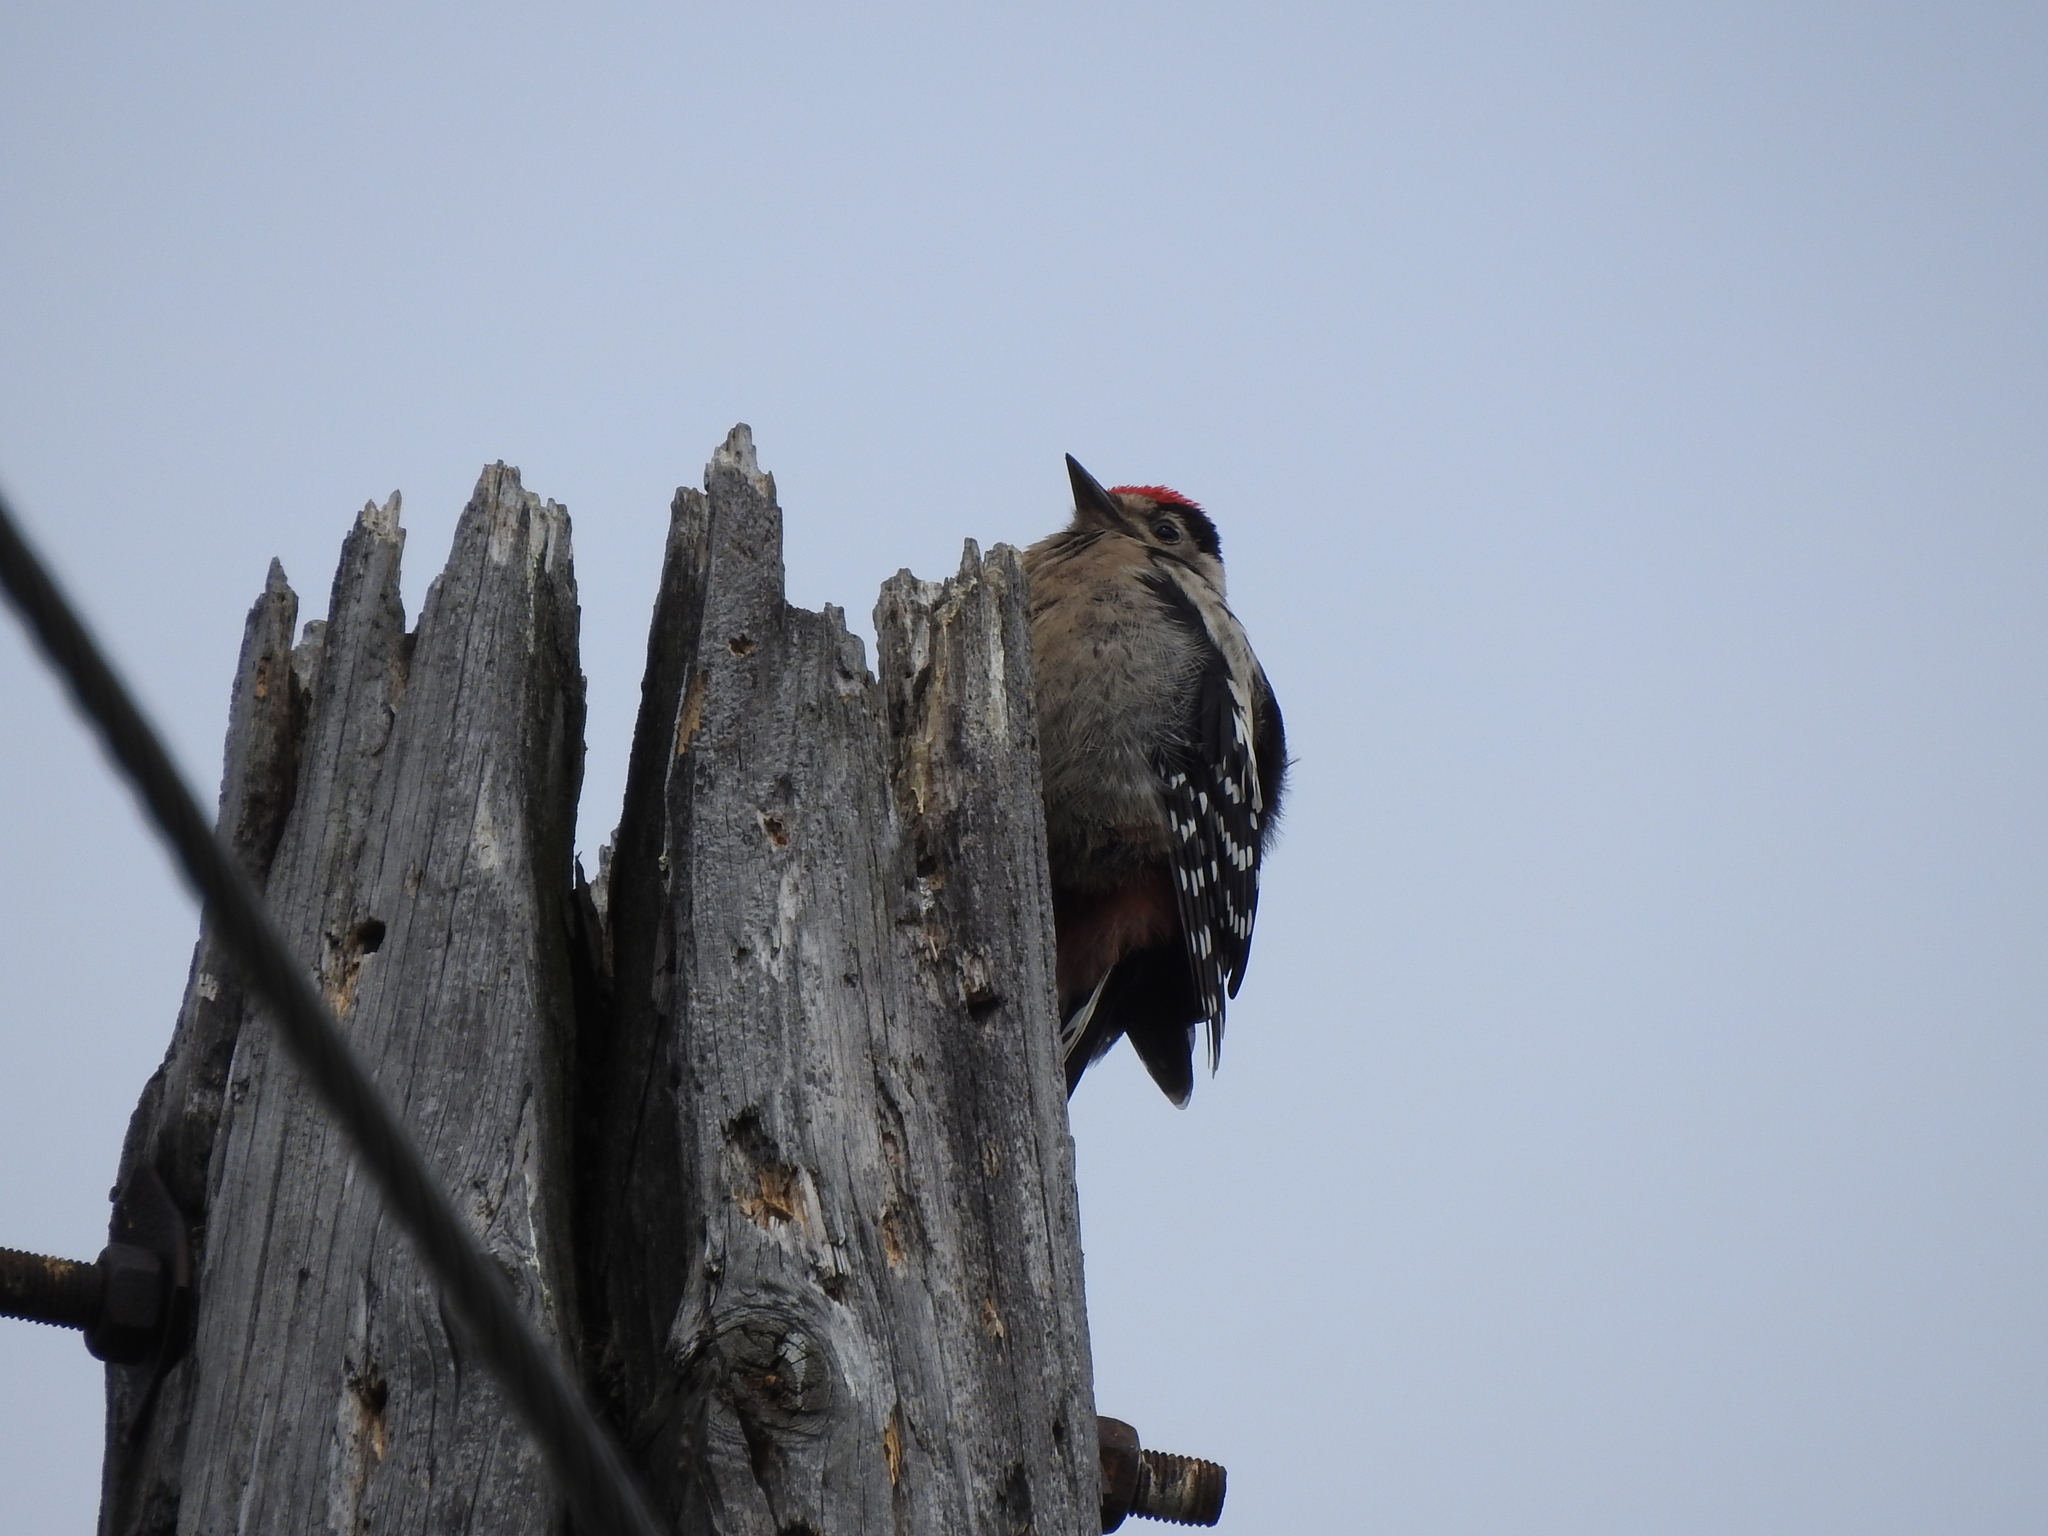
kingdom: Animalia
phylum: Chordata
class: Aves
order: Piciformes
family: Picidae
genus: Dendrocopos
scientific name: Dendrocopos major
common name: Great spotted woodpecker
